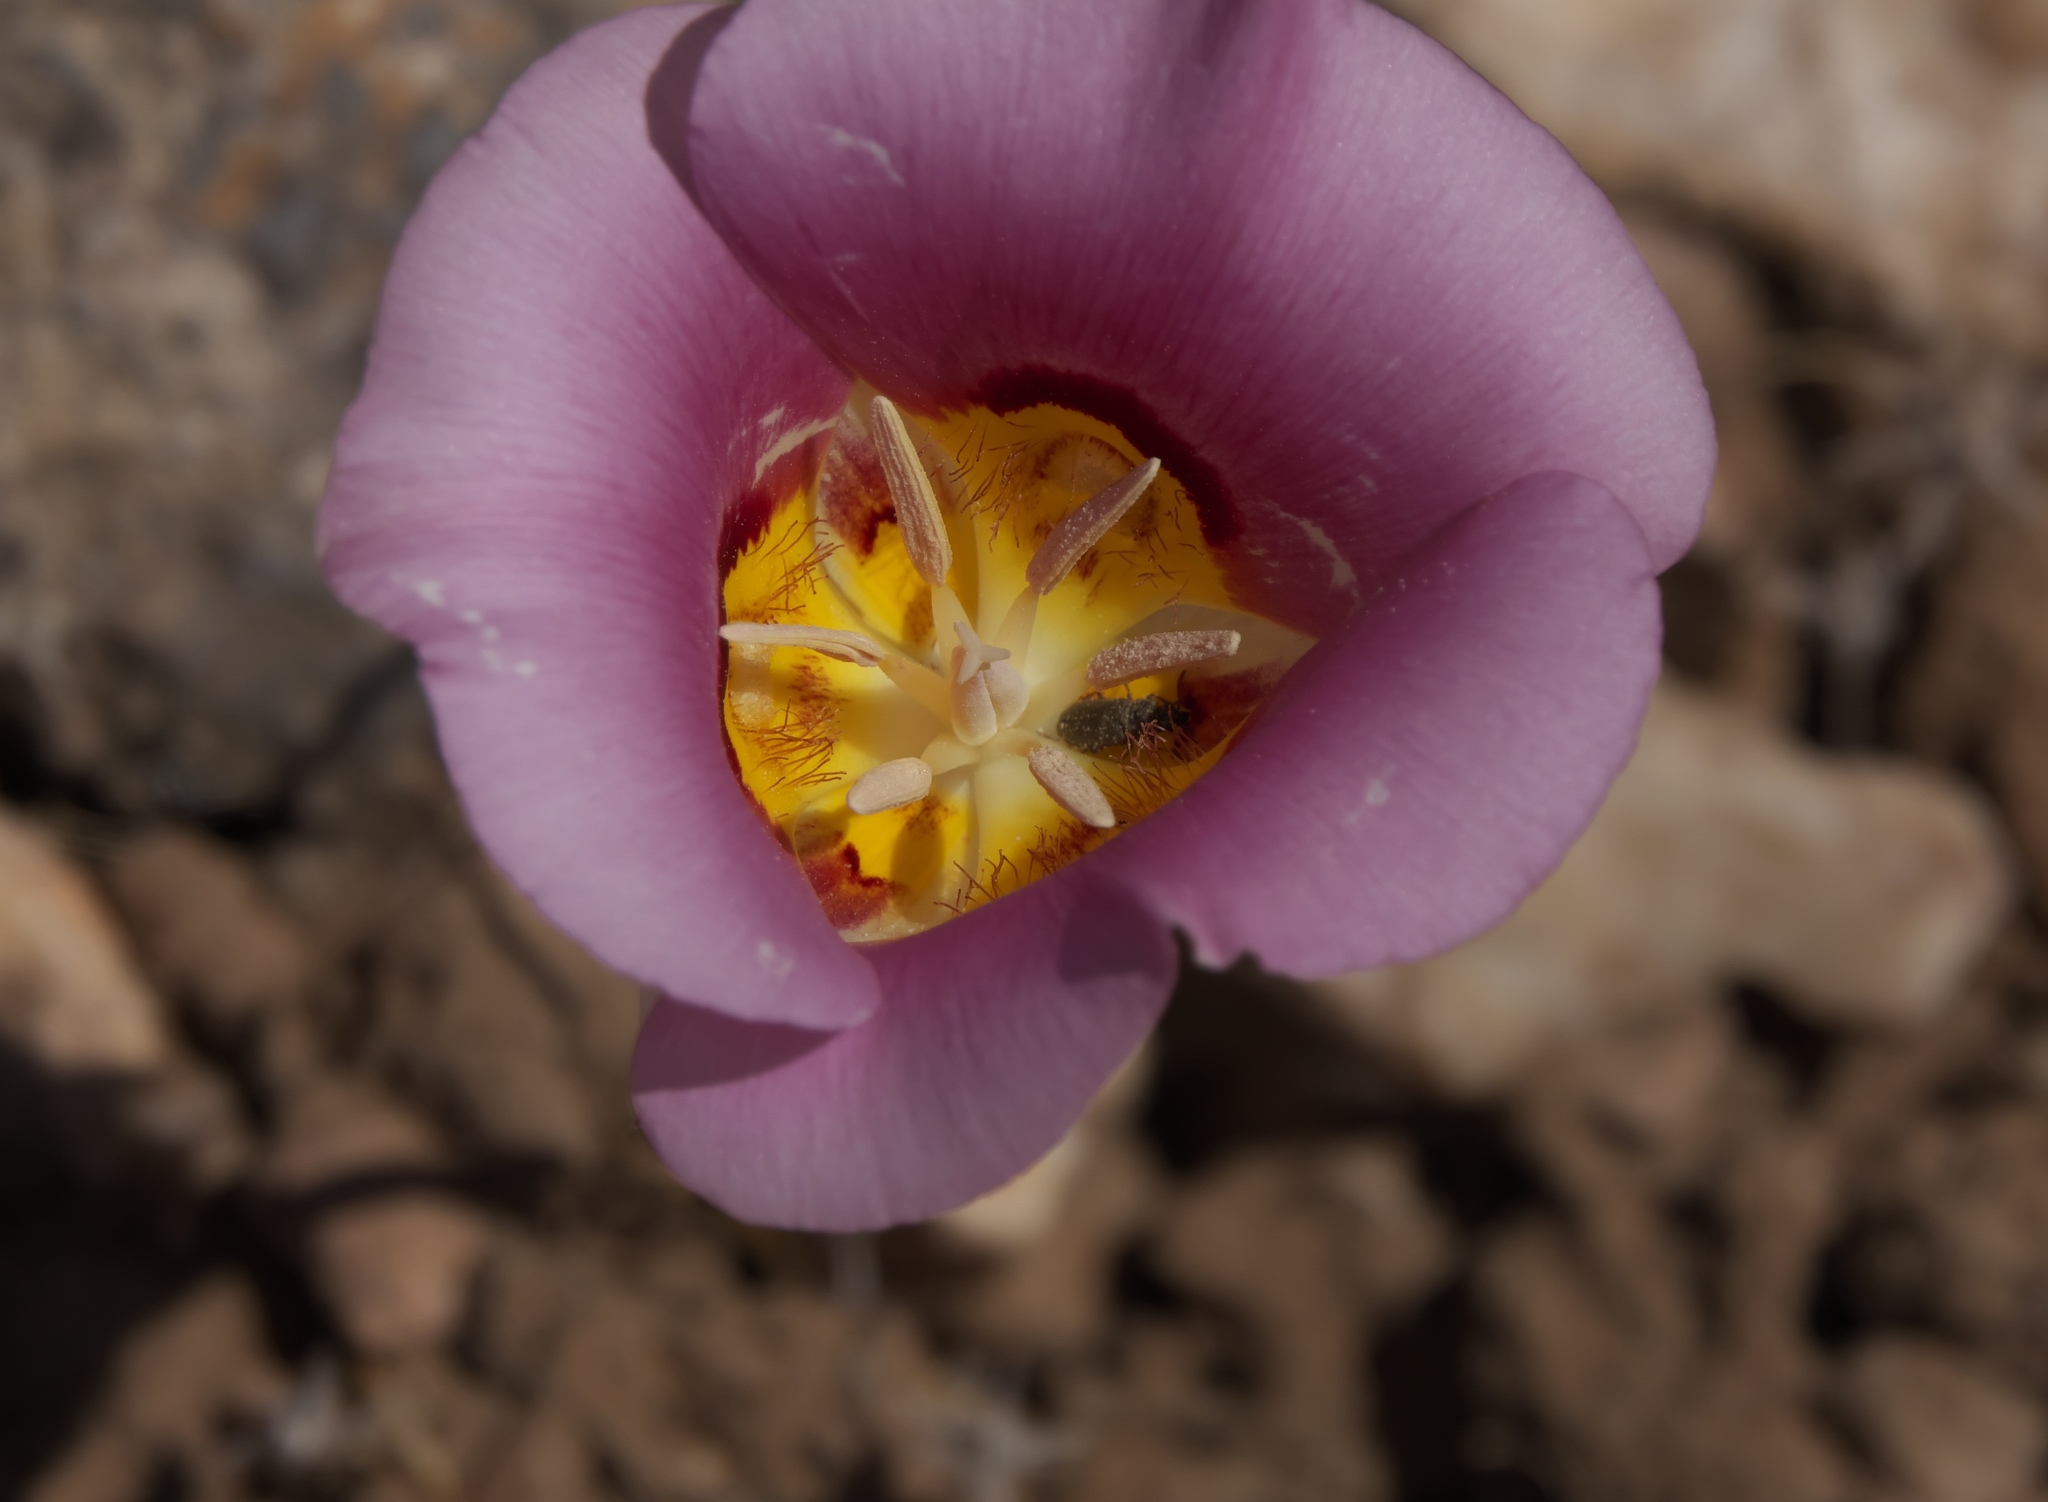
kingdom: Plantae
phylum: Tracheophyta
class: Liliopsida
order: Liliales
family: Liliaceae
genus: Calochortus
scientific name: Calochortus nuttallii
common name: Sego-lily
